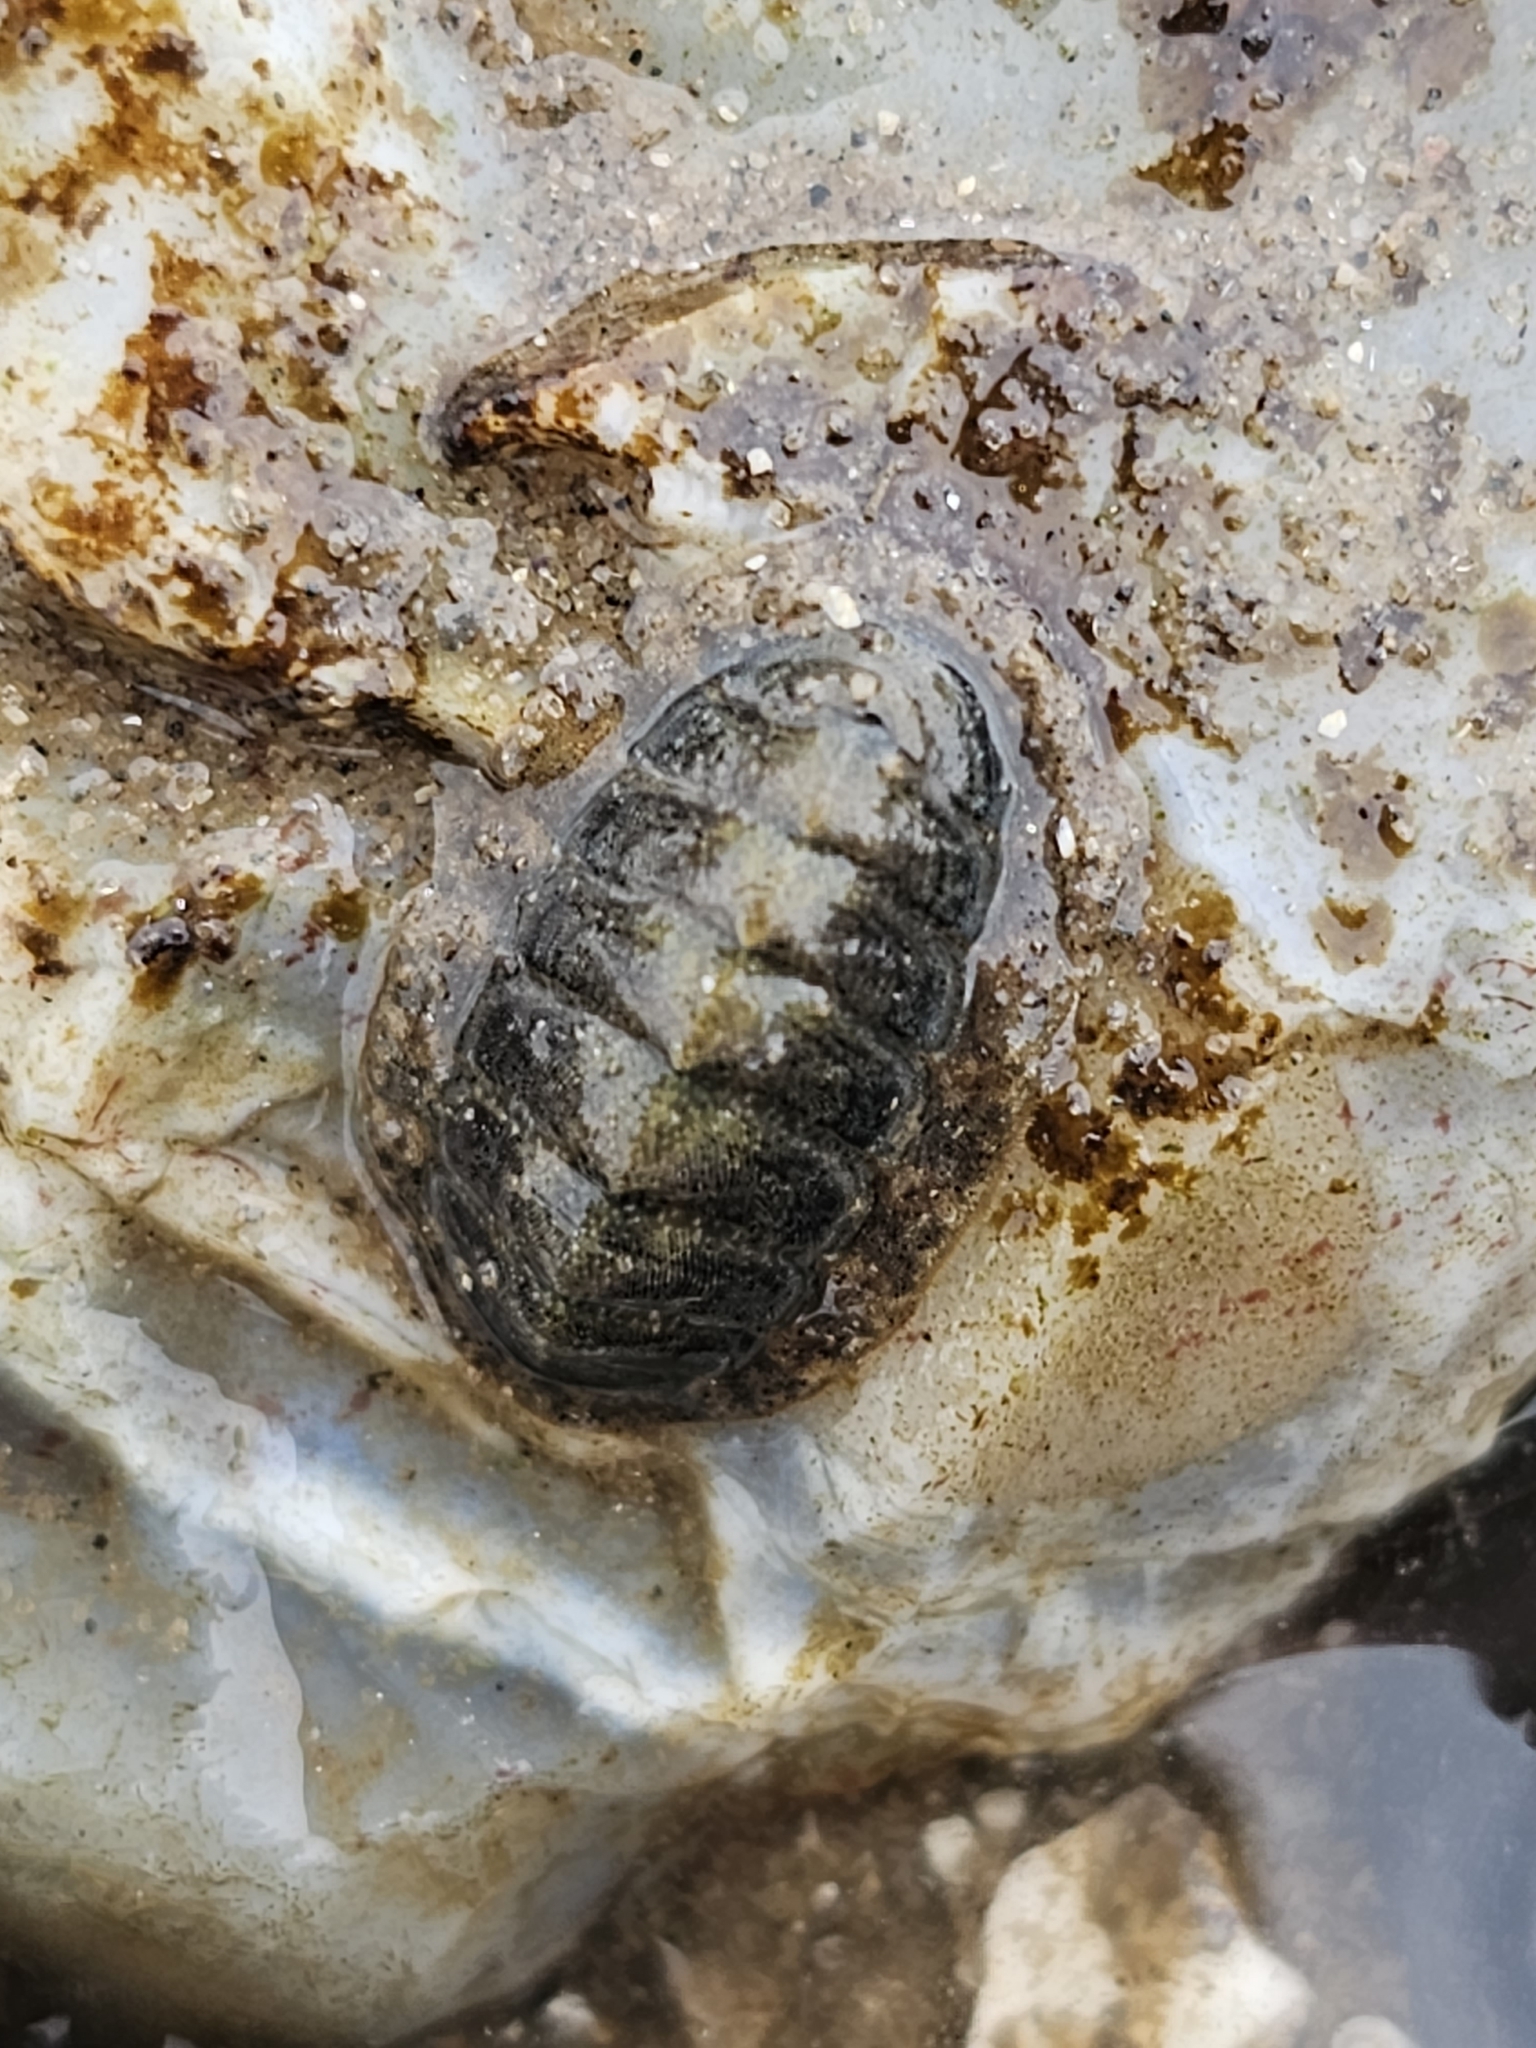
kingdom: Animalia
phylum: Mollusca
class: Polyplacophora
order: Chitonida
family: Tonicellidae
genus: Lepidochitona
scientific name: Lepidochitona cinerea
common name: Cinereous chiton
